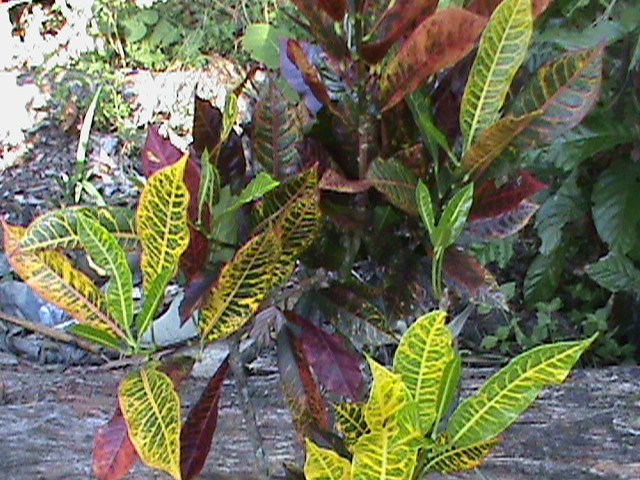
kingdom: Plantae
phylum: Tracheophyta
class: Magnoliopsida
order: Malpighiales
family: Euphorbiaceae
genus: Codiaeum
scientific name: Codiaeum variegatum
